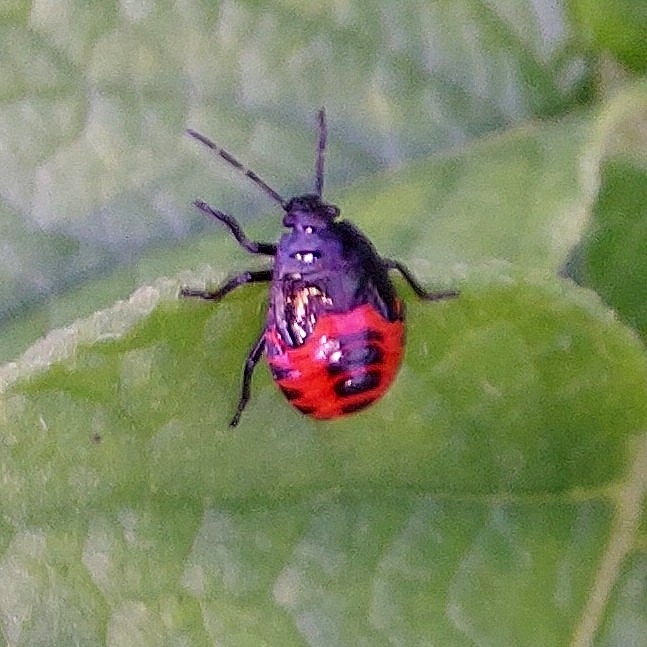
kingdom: Animalia
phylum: Arthropoda
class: Insecta
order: Hemiptera
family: Pentatomidae
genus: Zicrona
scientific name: Zicrona caerulea
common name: Blue shieldbug
